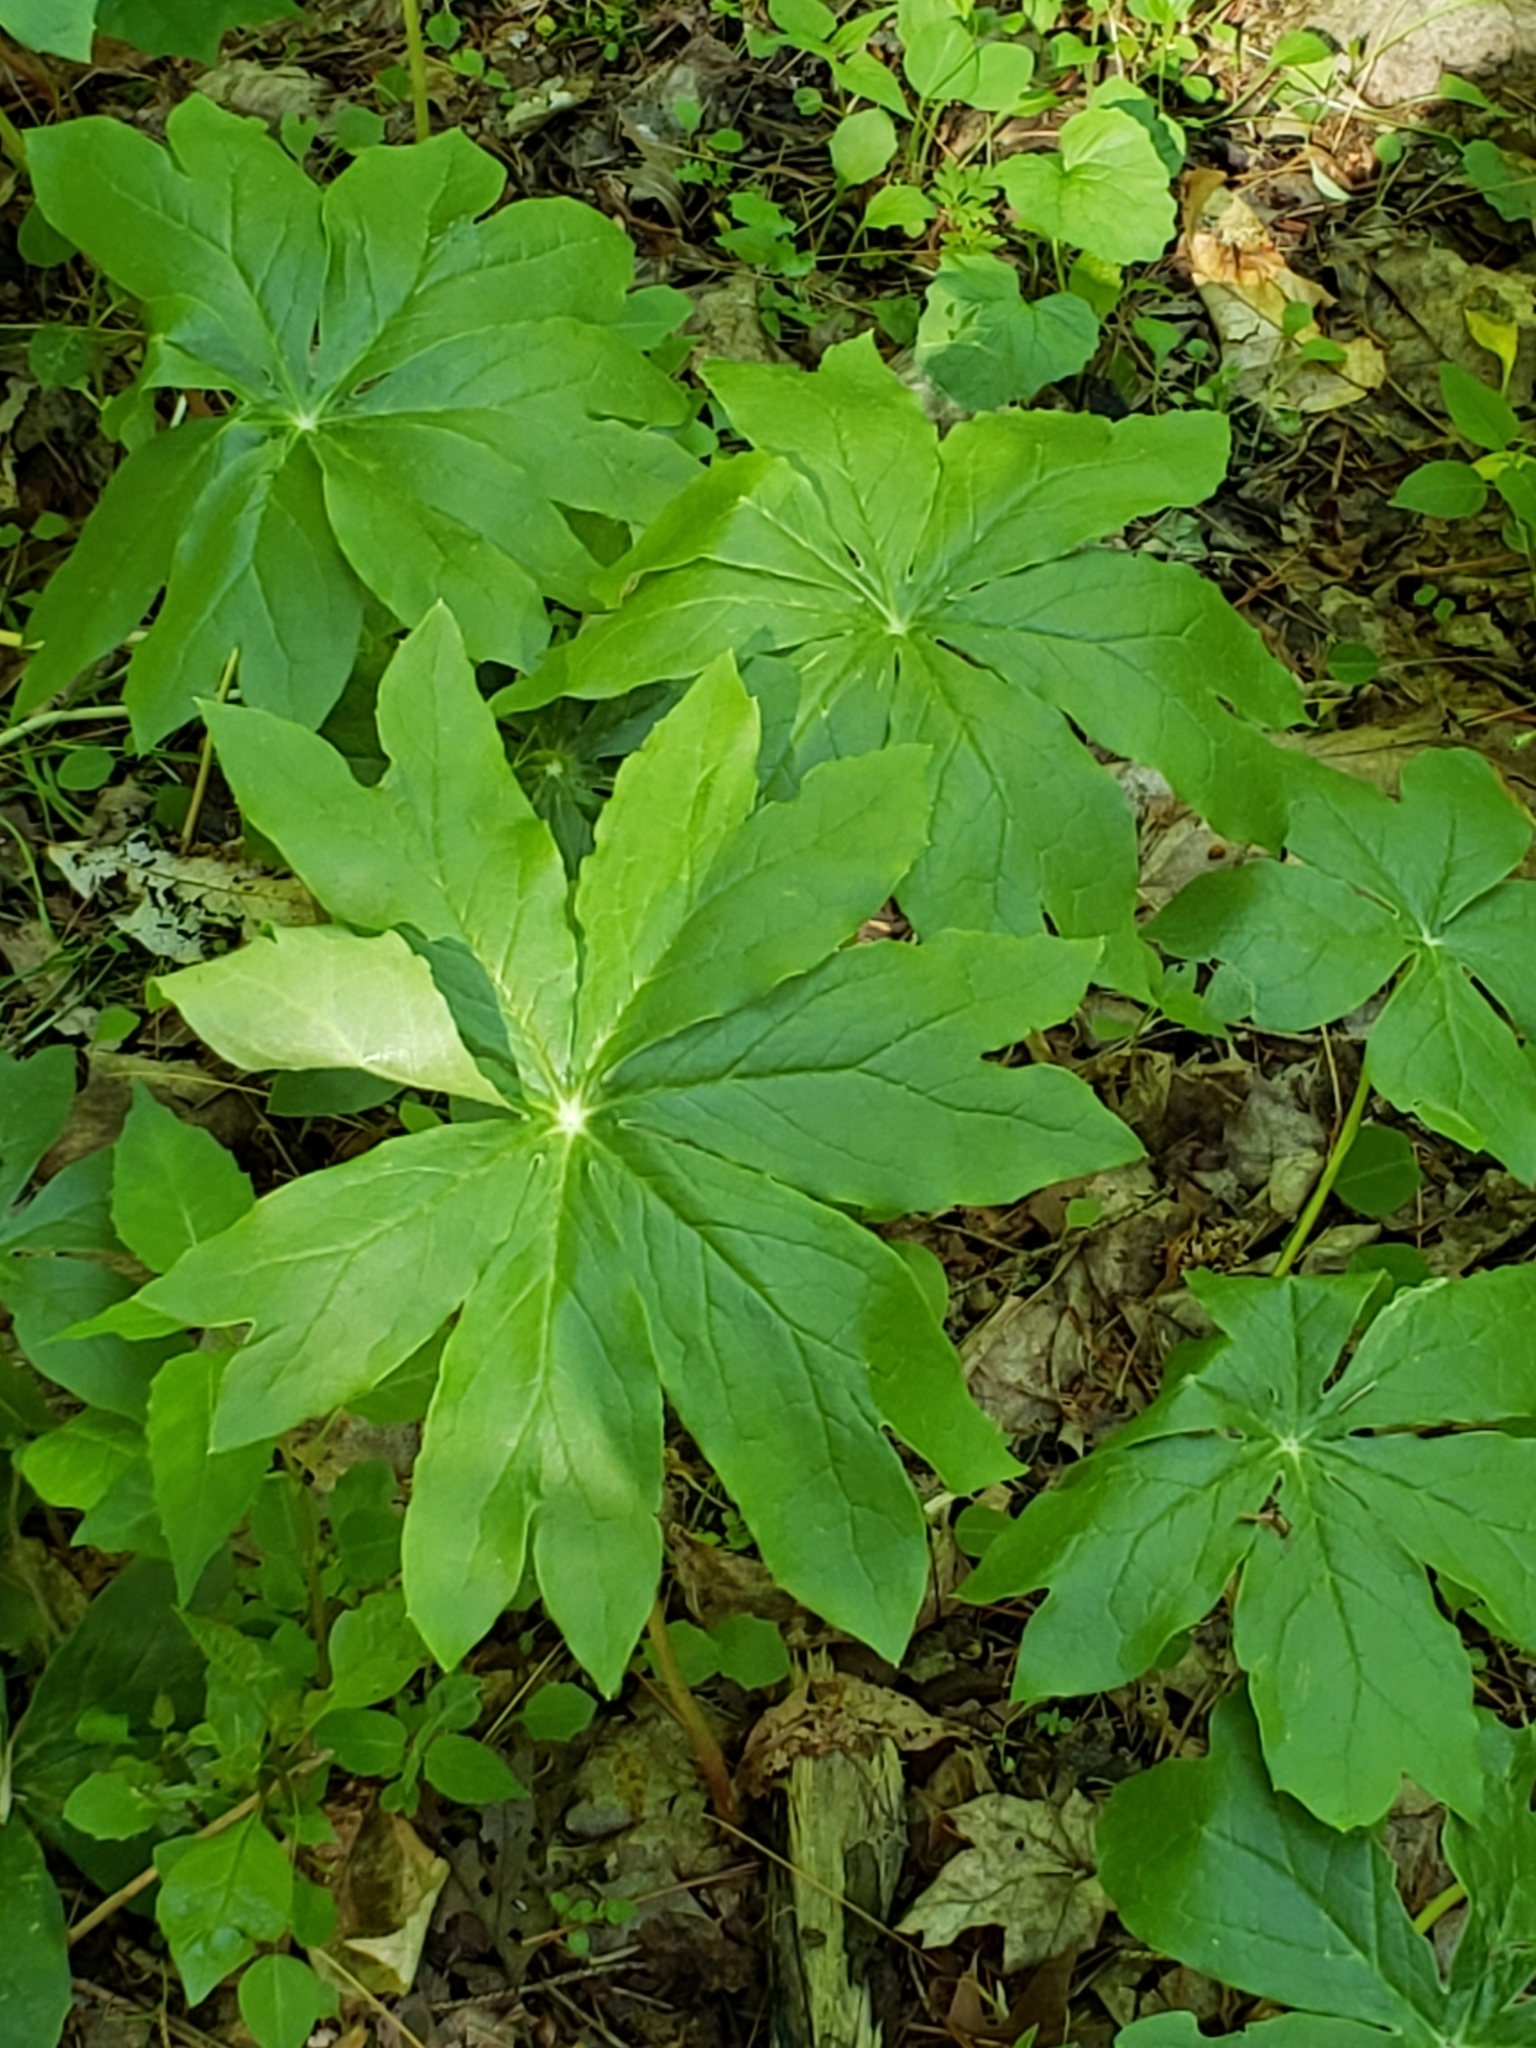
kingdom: Plantae
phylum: Tracheophyta
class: Magnoliopsida
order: Ranunculales
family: Berberidaceae
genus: Podophyllum
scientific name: Podophyllum peltatum
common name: Wild mandrake
